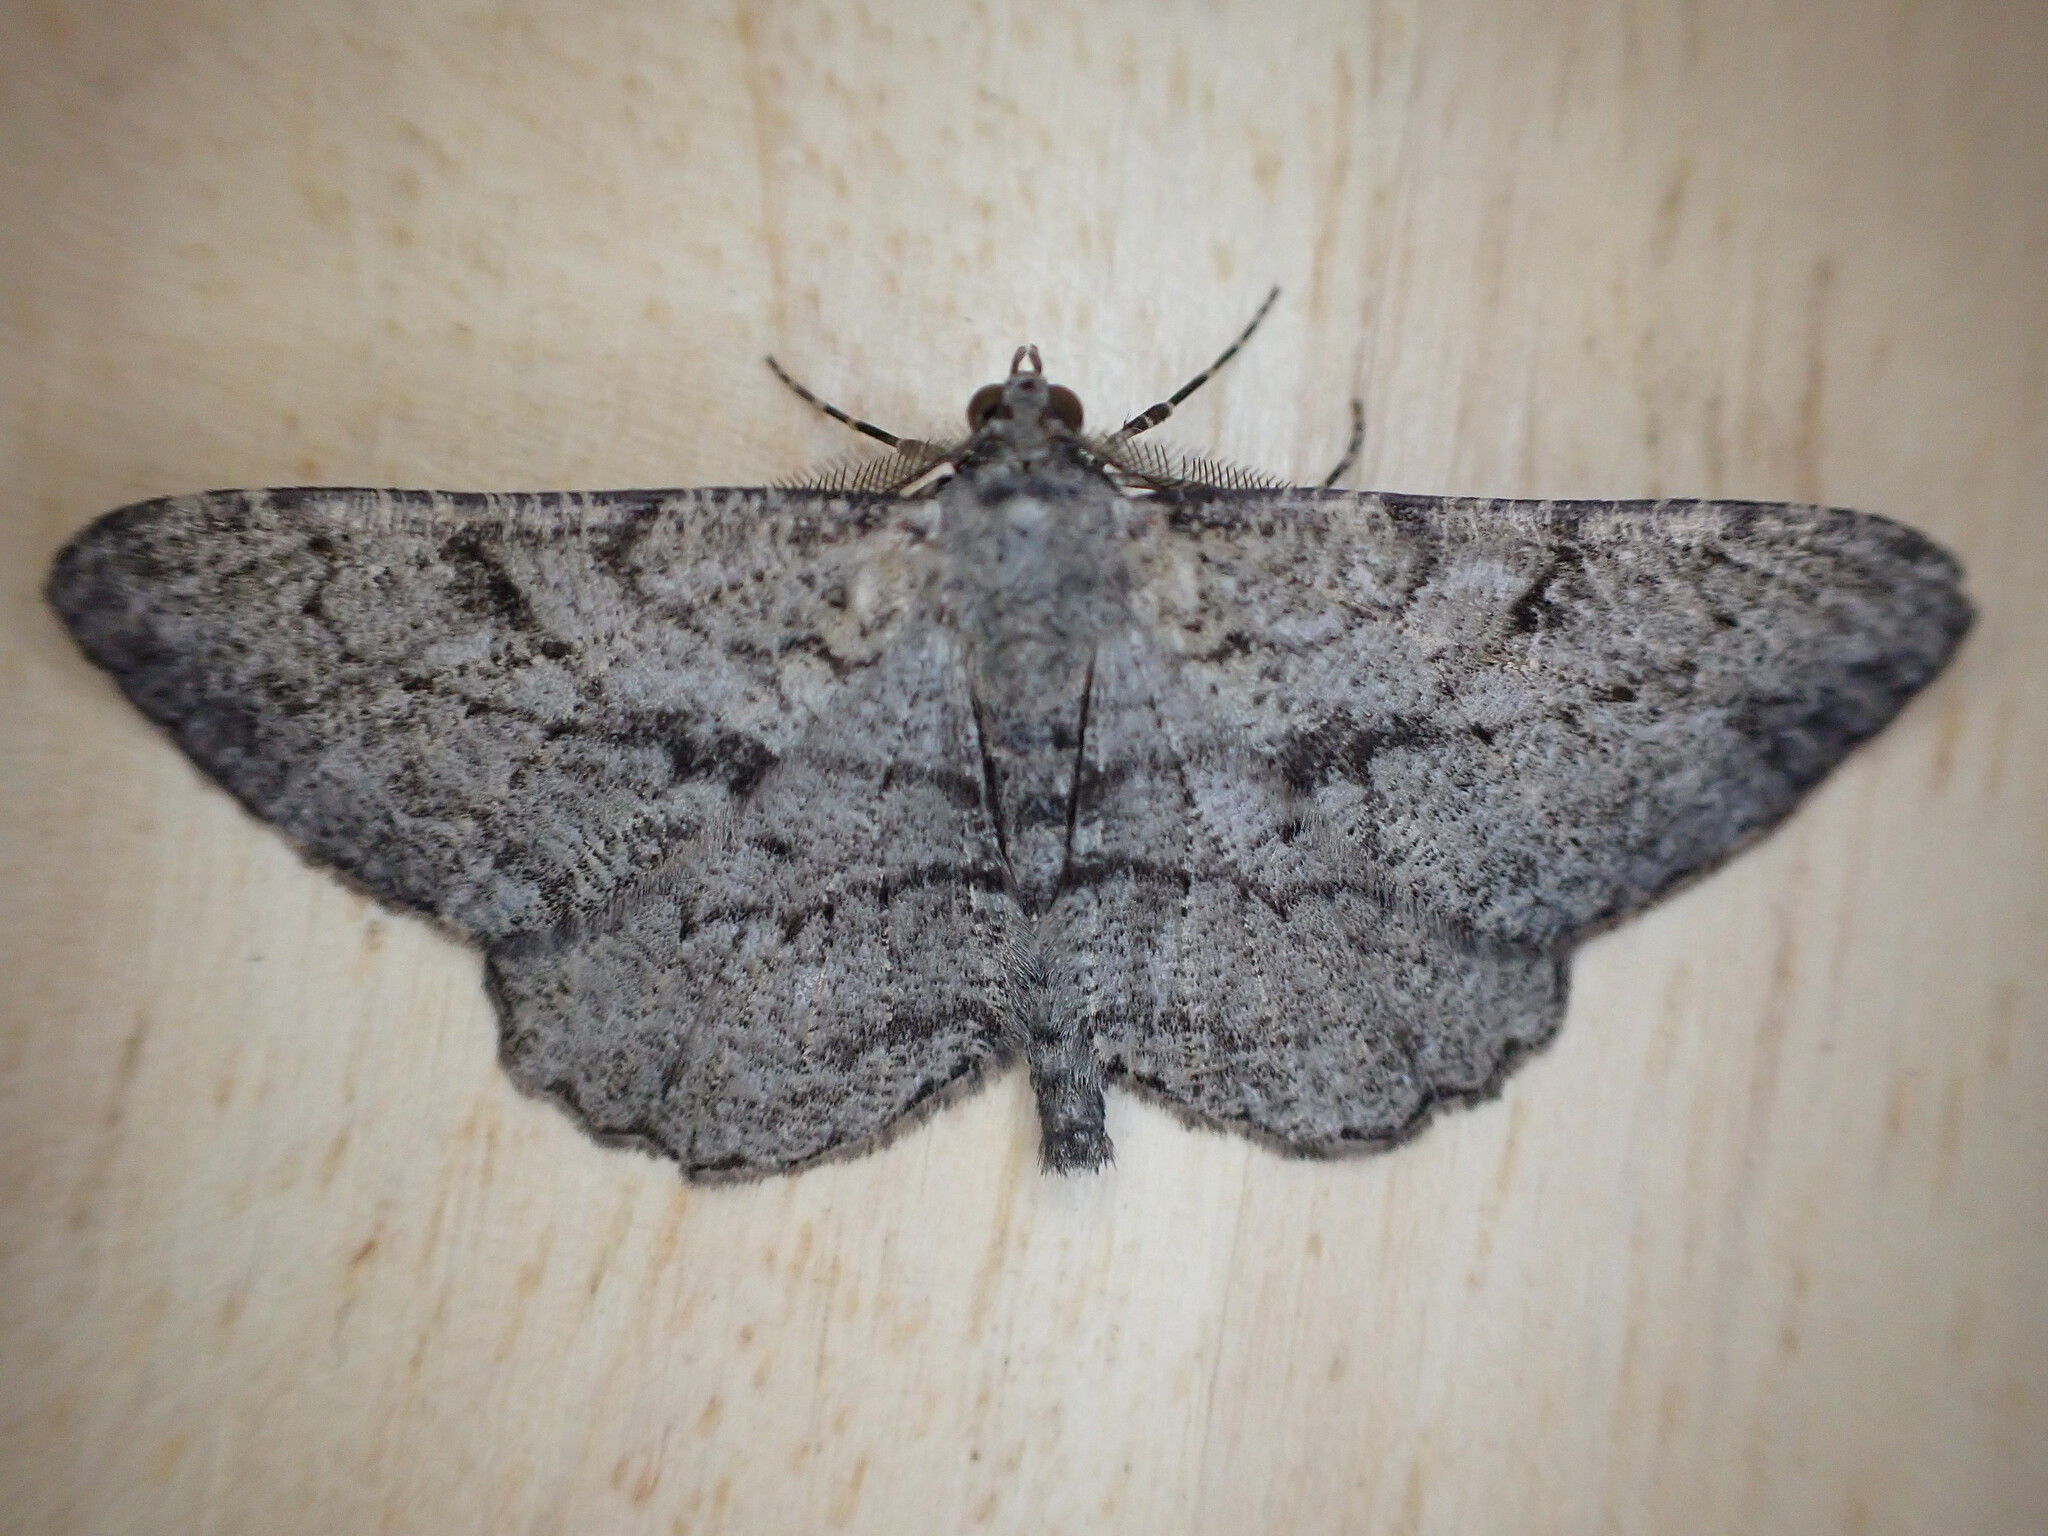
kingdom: Animalia
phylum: Arthropoda
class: Insecta
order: Lepidoptera
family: Geometridae
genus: Peribatodes
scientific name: Peribatodes rhomboidaria
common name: Willow beauty
